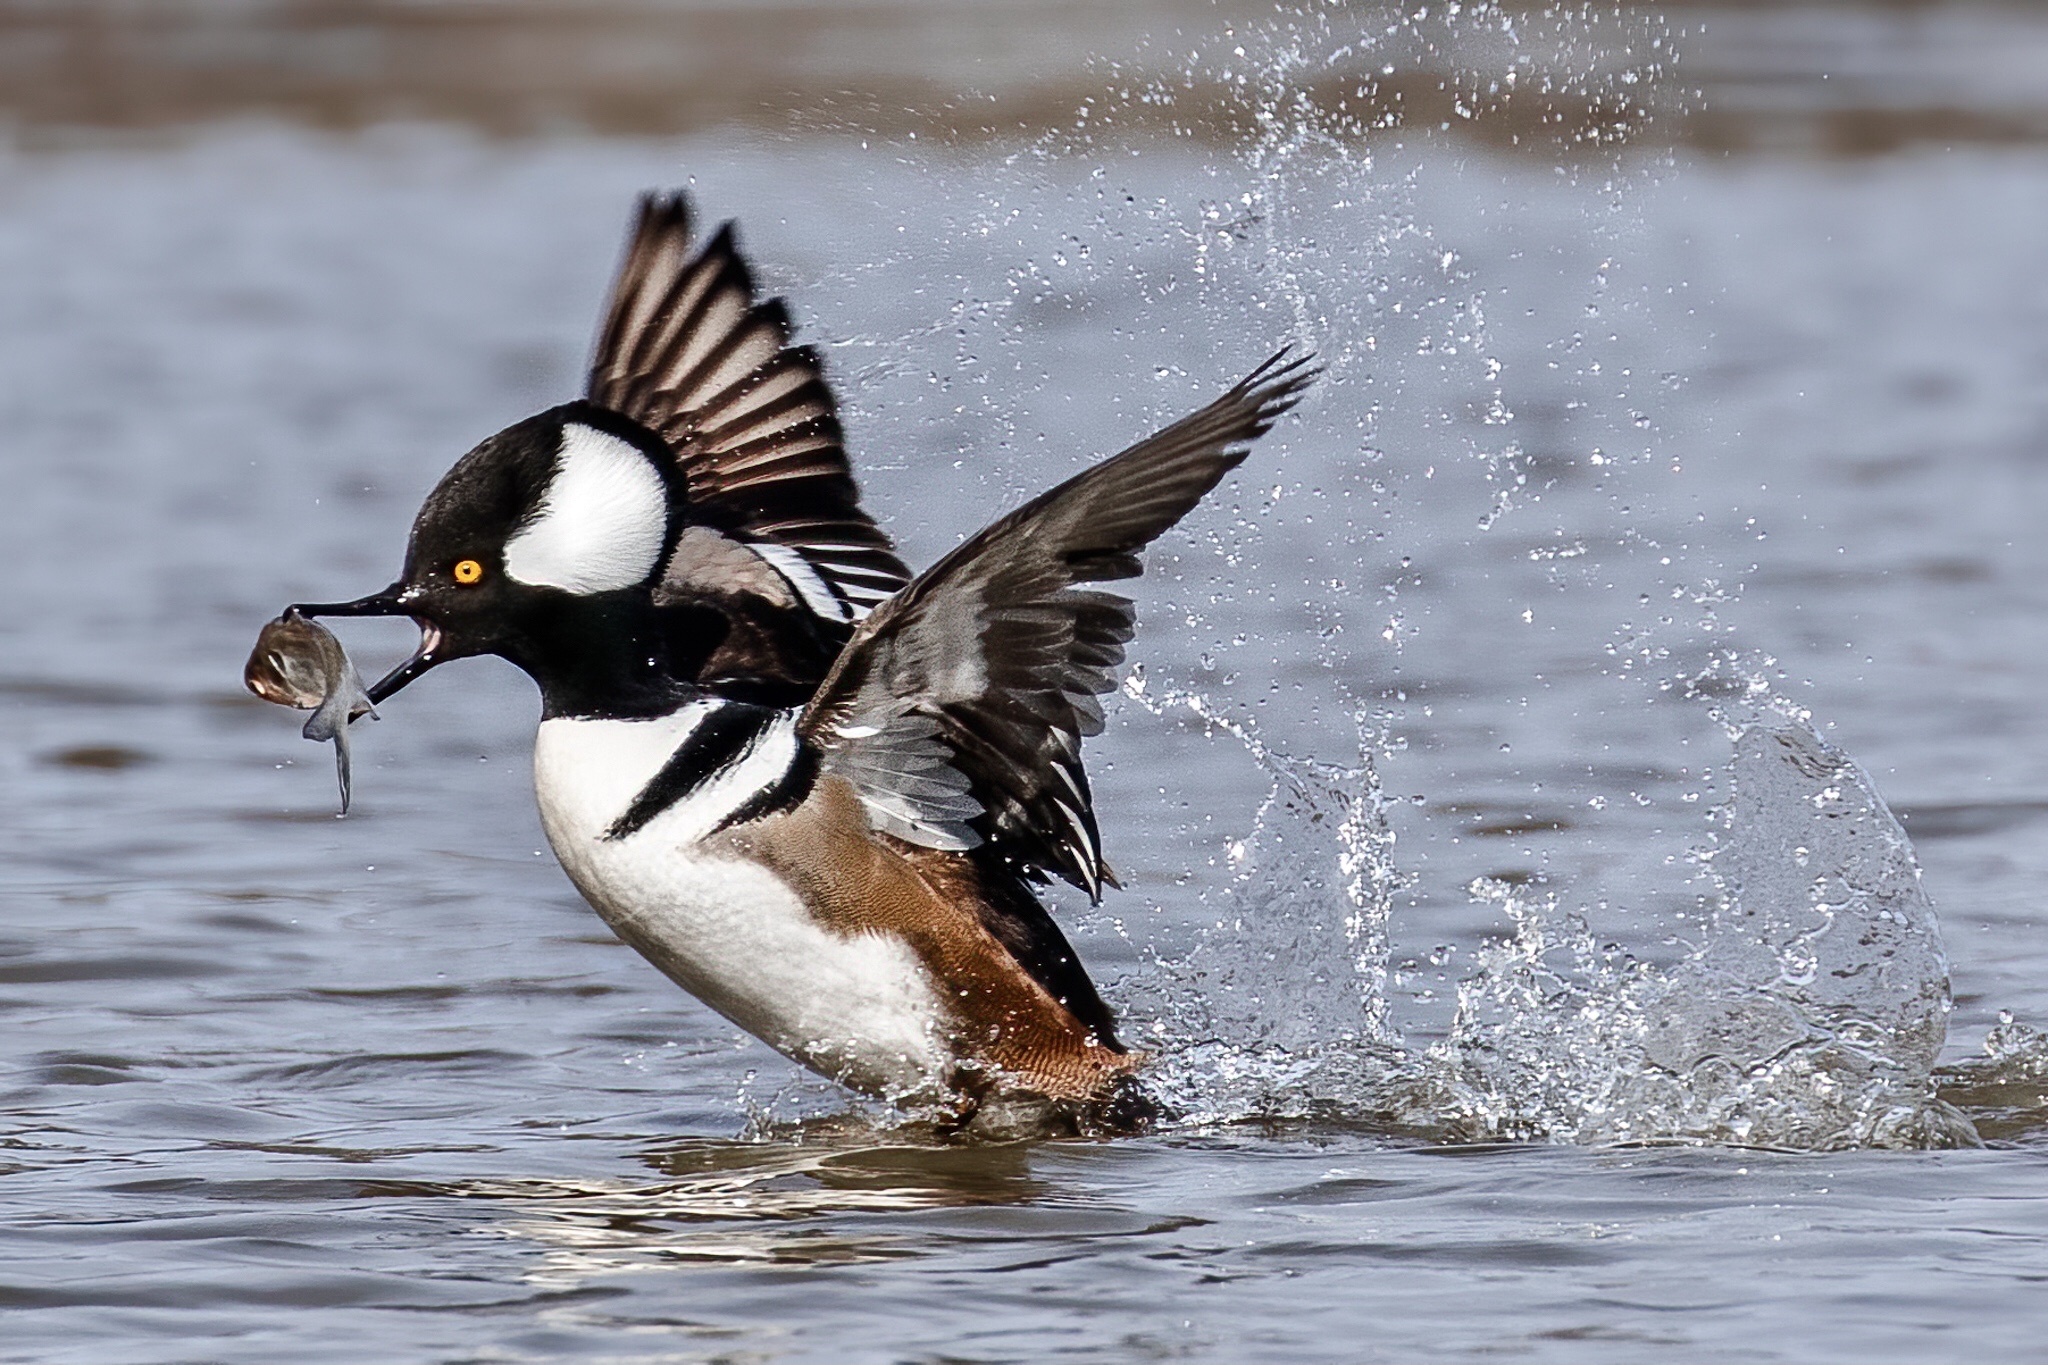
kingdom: Animalia
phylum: Chordata
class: Aves
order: Anseriformes
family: Anatidae
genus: Lophodytes
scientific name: Lophodytes cucullatus
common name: Hooded merganser
